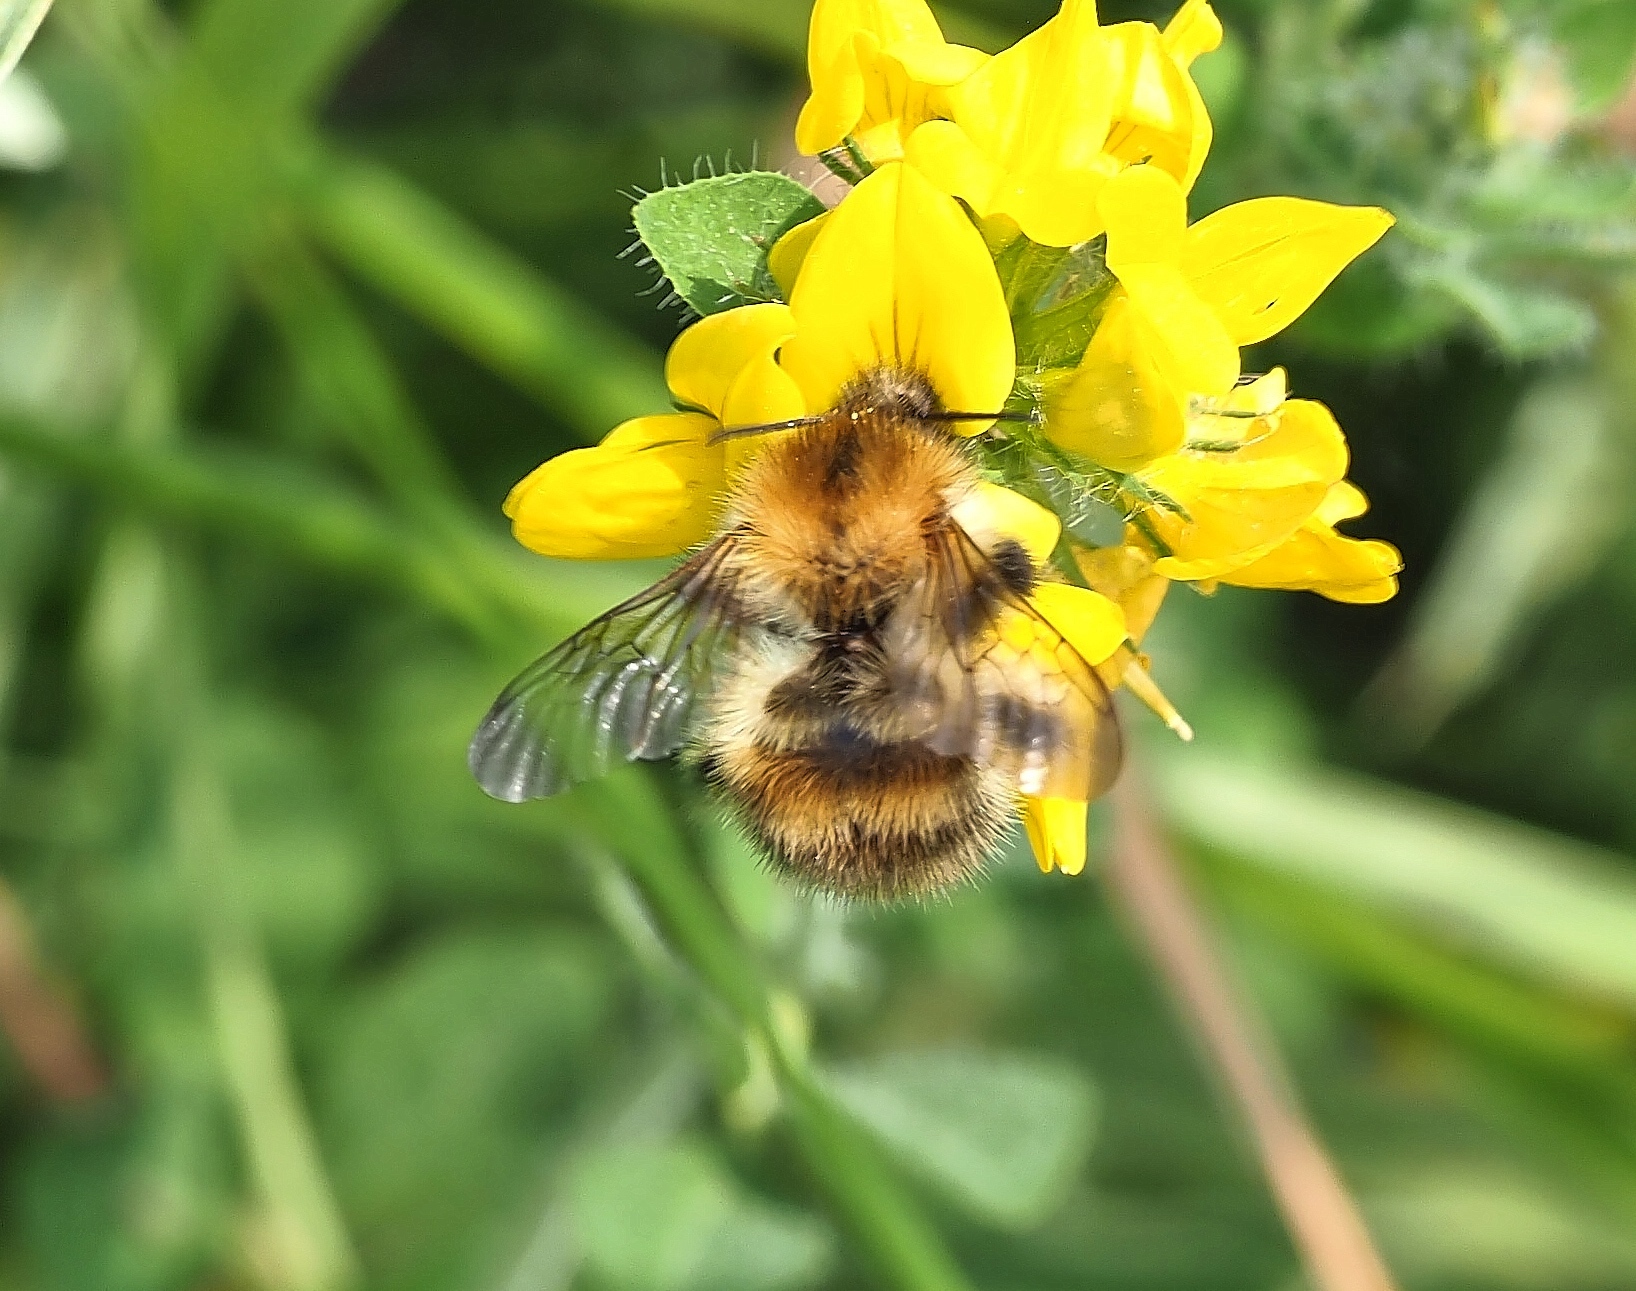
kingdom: Animalia
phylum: Arthropoda
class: Insecta
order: Hymenoptera
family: Apidae
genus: Bombus
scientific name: Bombus pascuorum
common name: Common carder bee
